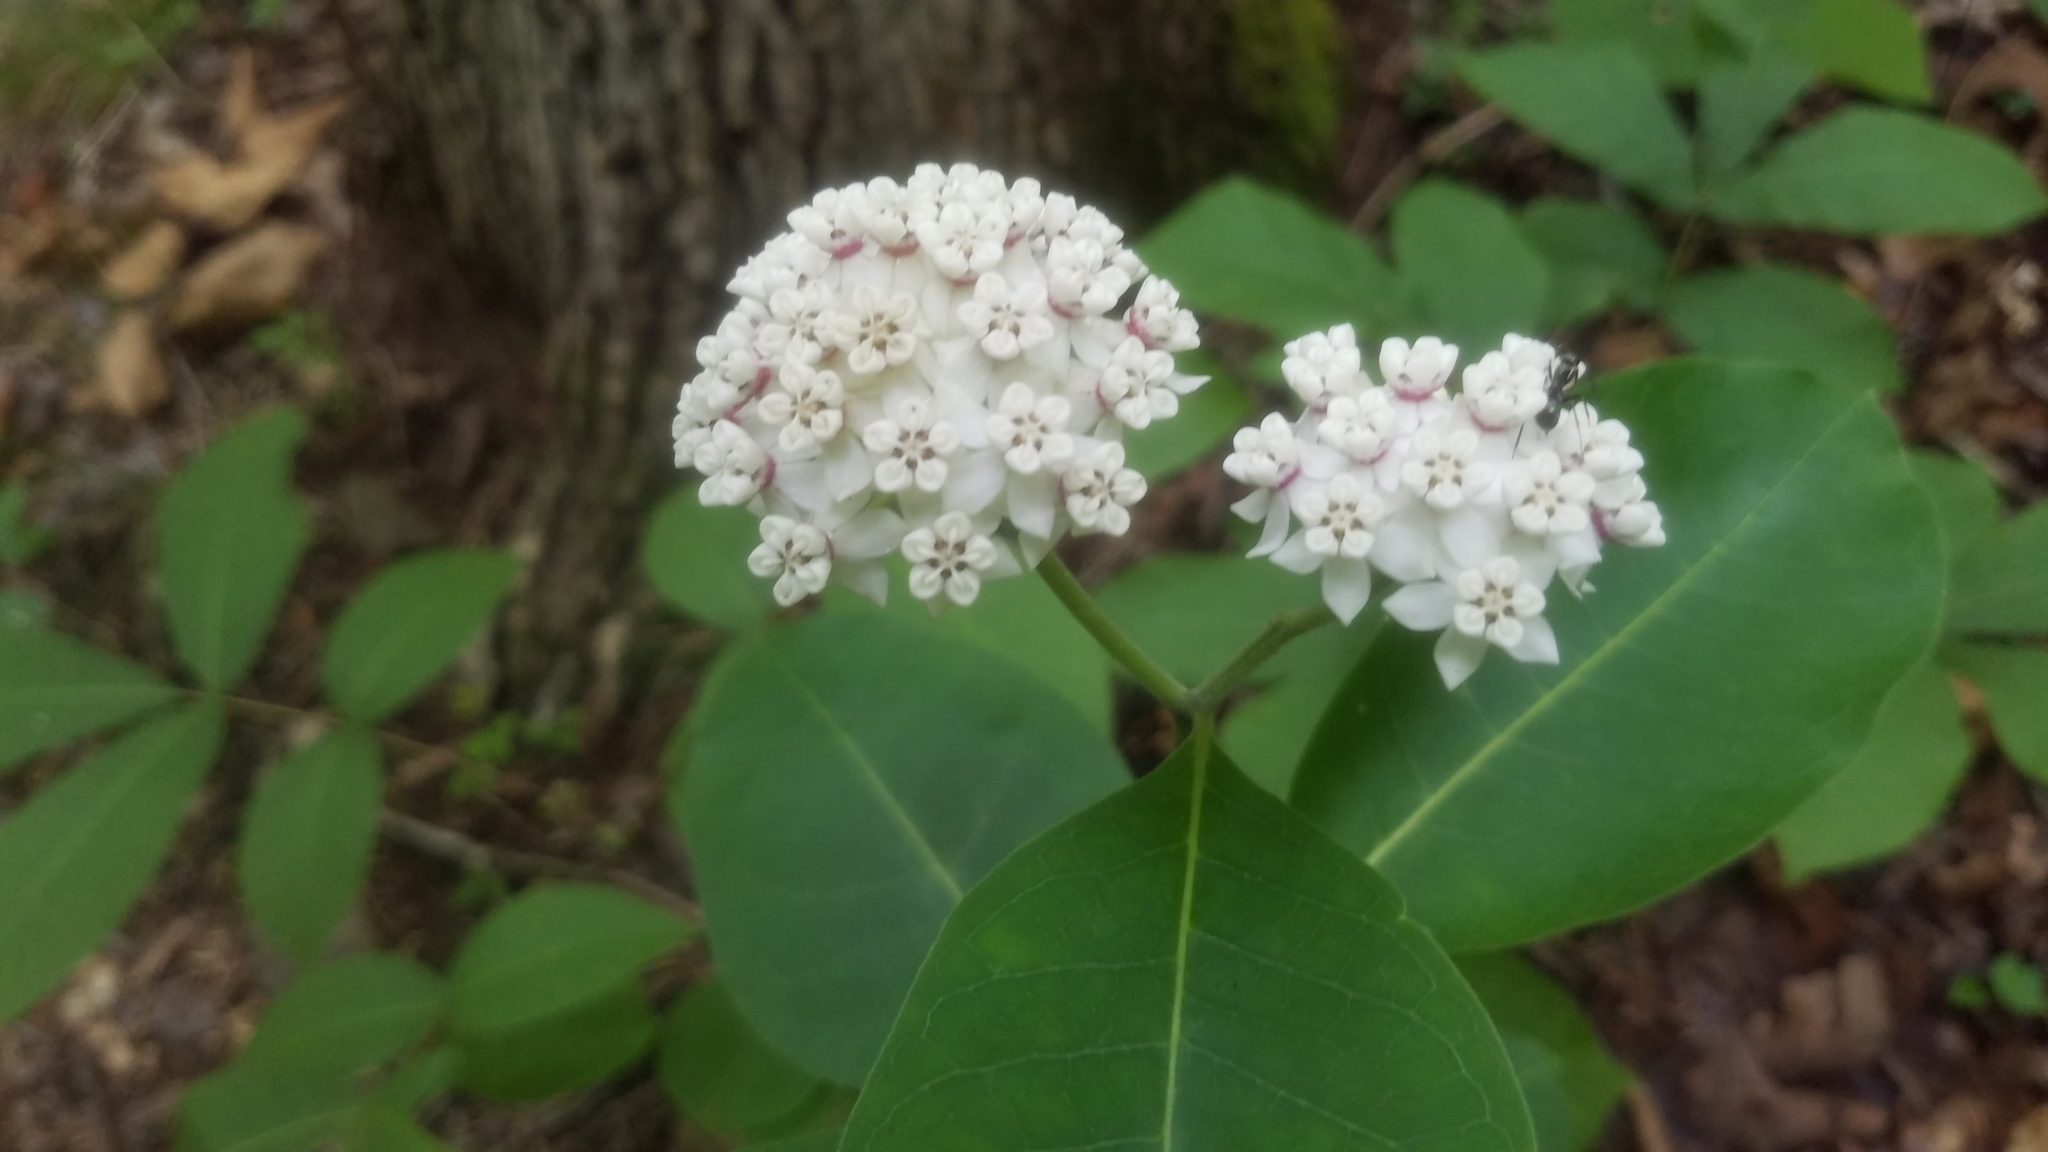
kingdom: Plantae
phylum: Tracheophyta
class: Magnoliopsida
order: Gentianales
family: Apocynaceae
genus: Asclepias
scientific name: Asclepias variegata
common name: Variegated milkweed
